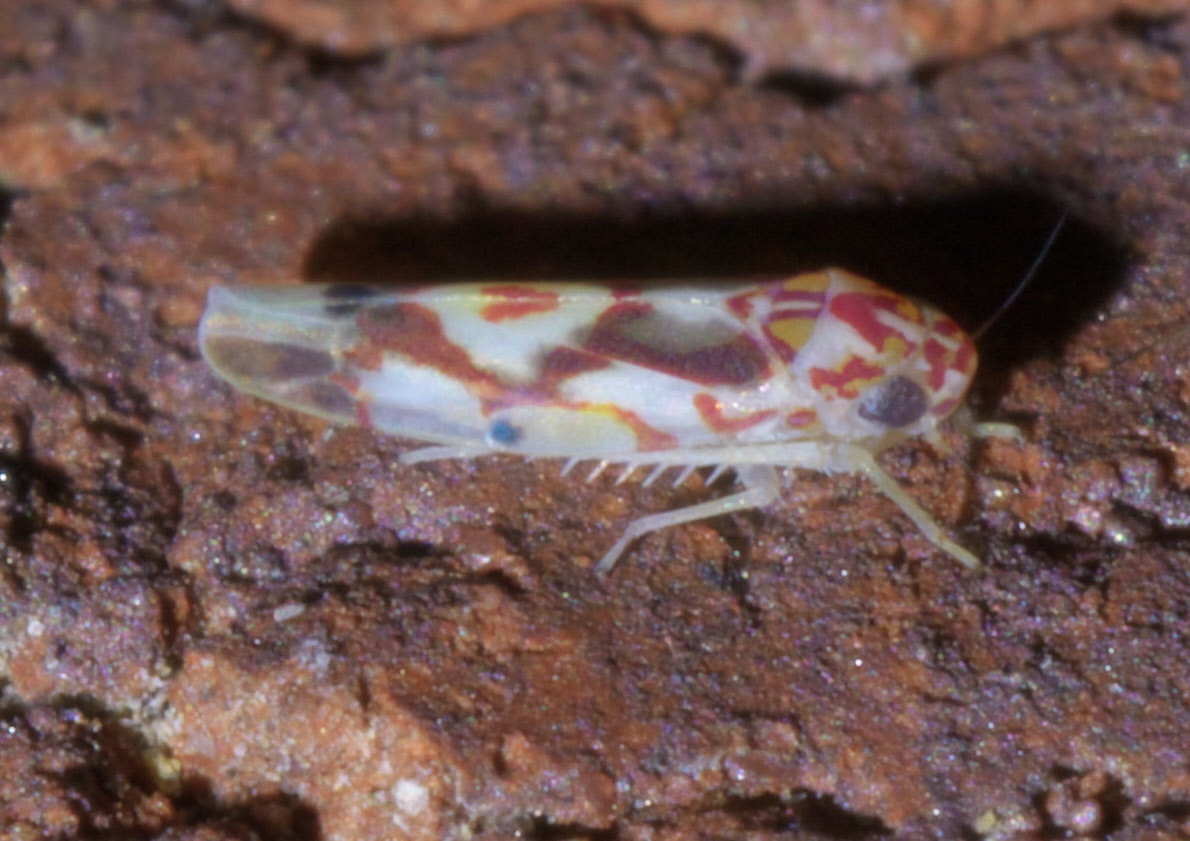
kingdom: Animalia
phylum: Arthropoda
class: Insecta
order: Hemiptera
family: Cicadellidae
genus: Eratoneura
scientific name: Eratoneura ligata
